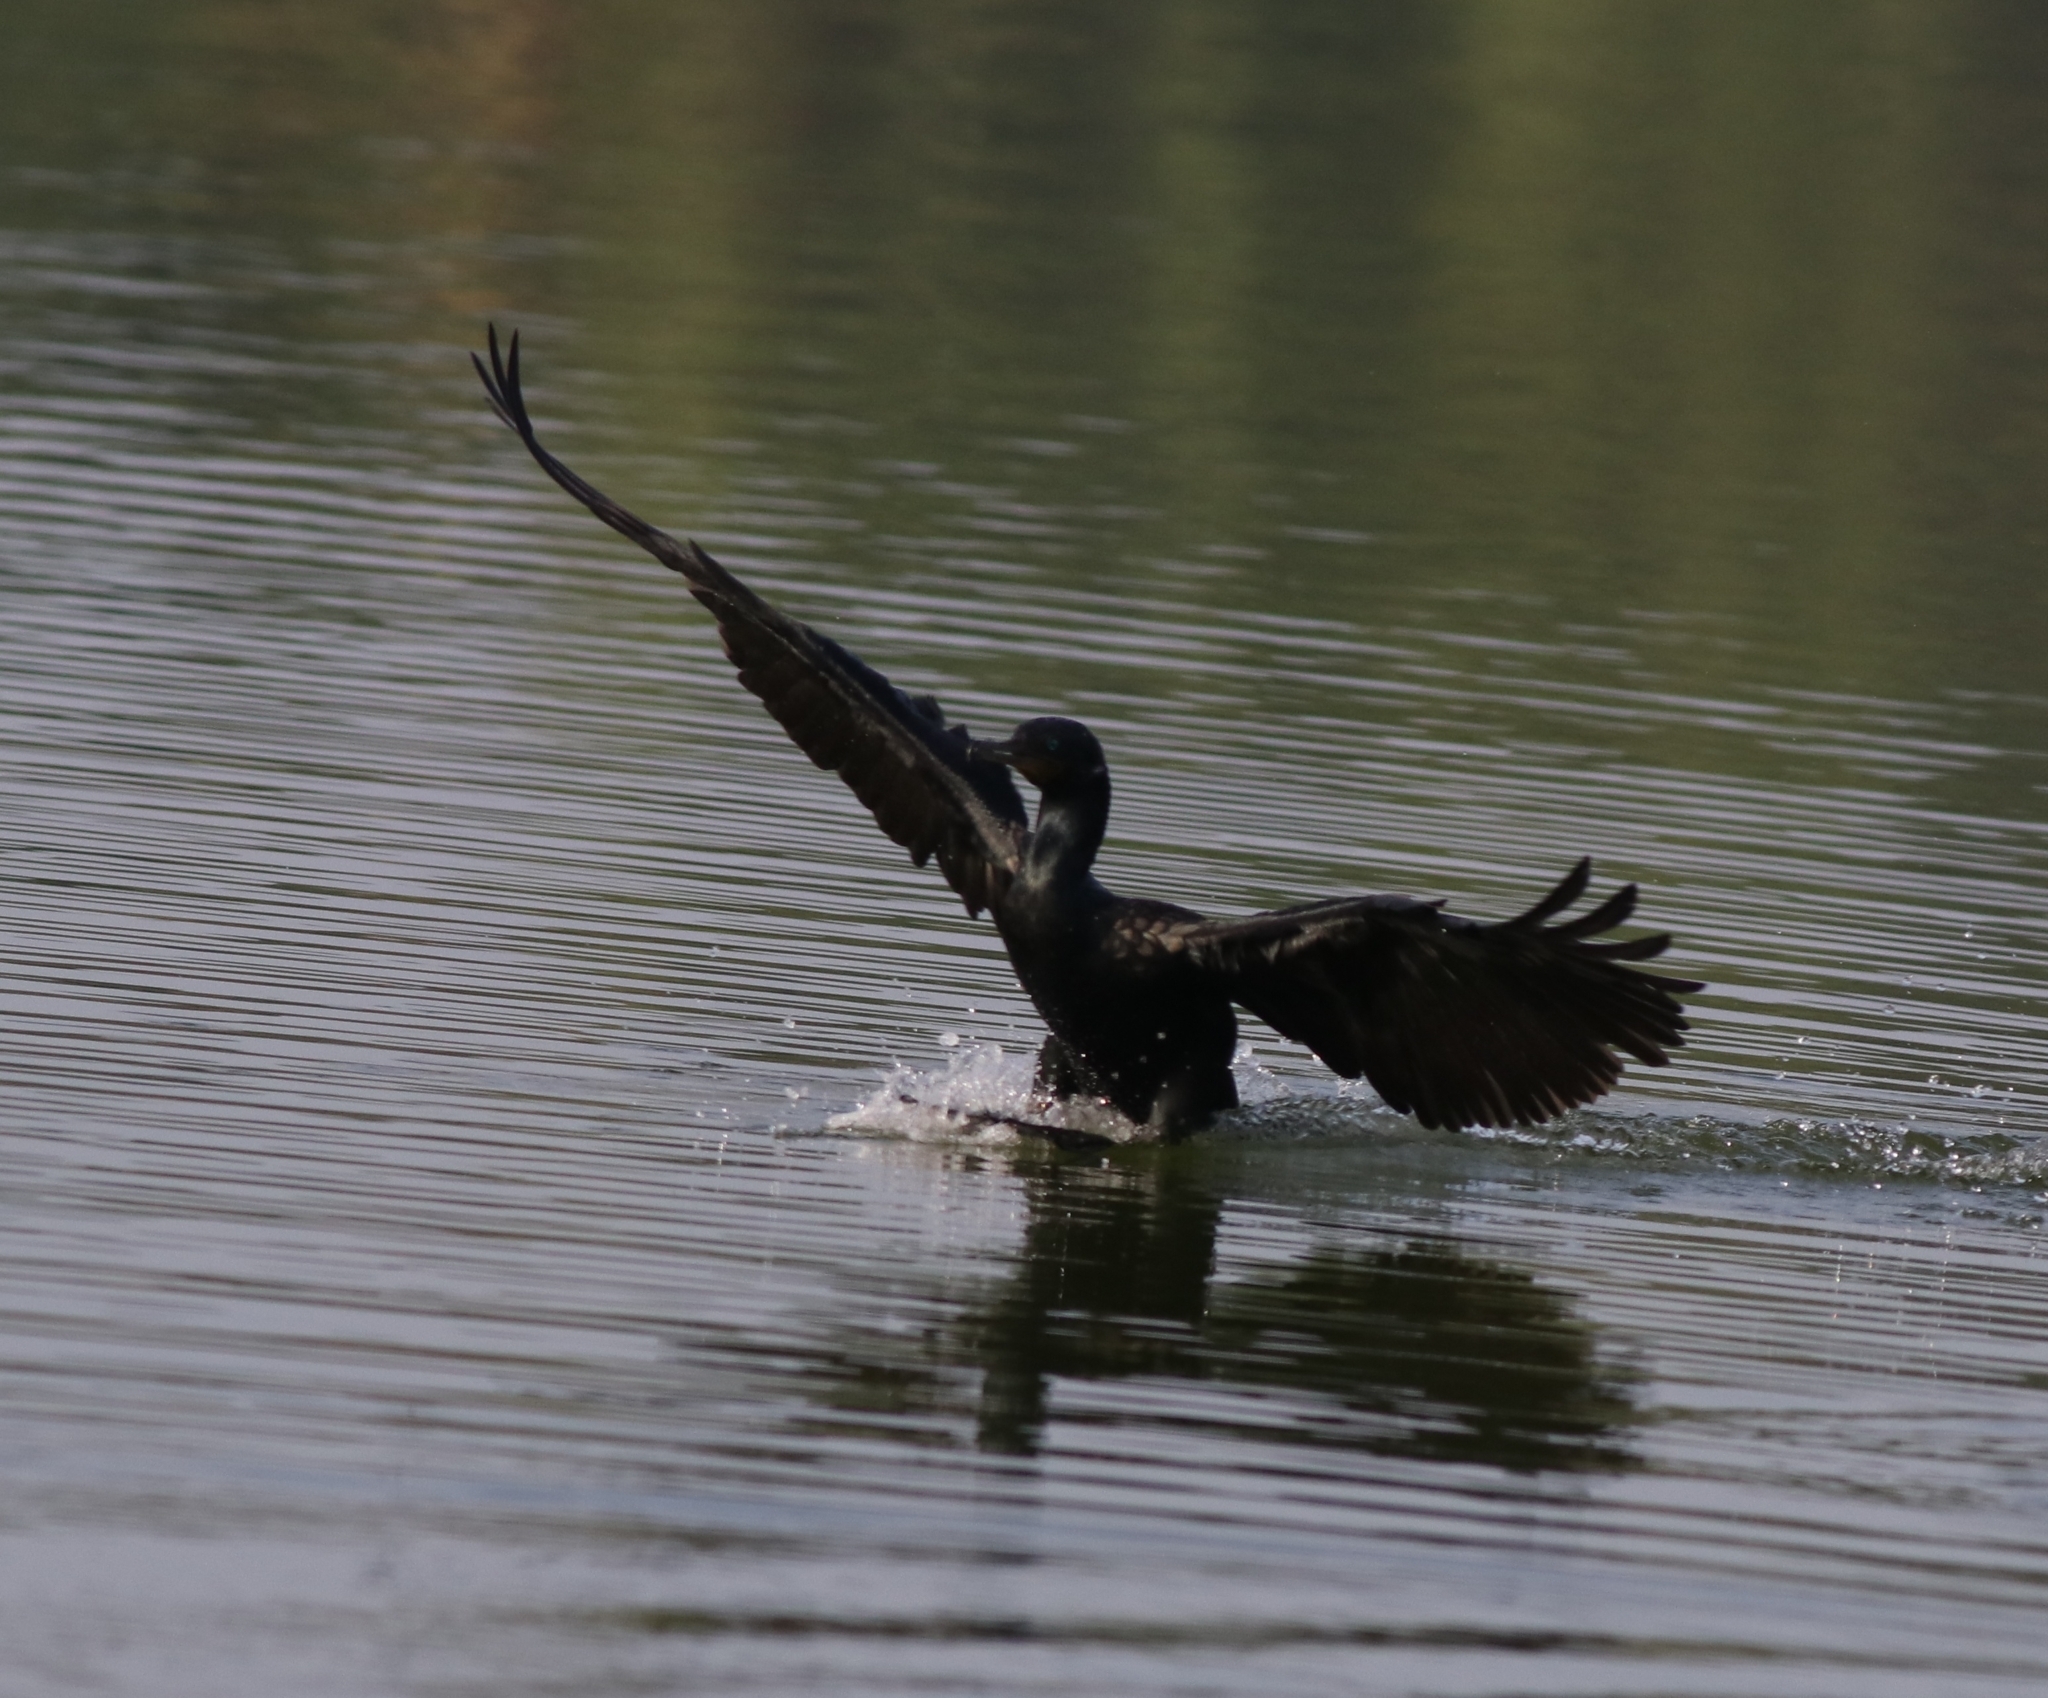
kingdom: Animalia
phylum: Chordata
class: Aves
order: Suliformes
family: Phalacrocoracidae
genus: Phalacrocorax
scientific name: Phalacrocorax fuscicollis
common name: Indian cormorant
